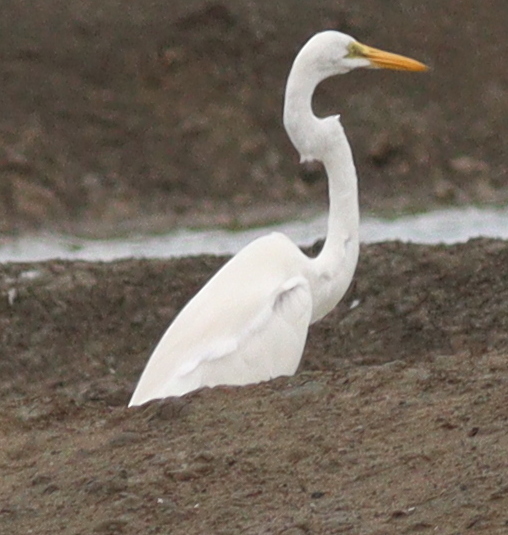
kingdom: Animalia
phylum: Chordata
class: Aves
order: Pelecaniformes
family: Ardeidae
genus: Ardea
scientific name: Ardea alba
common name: Great egret
